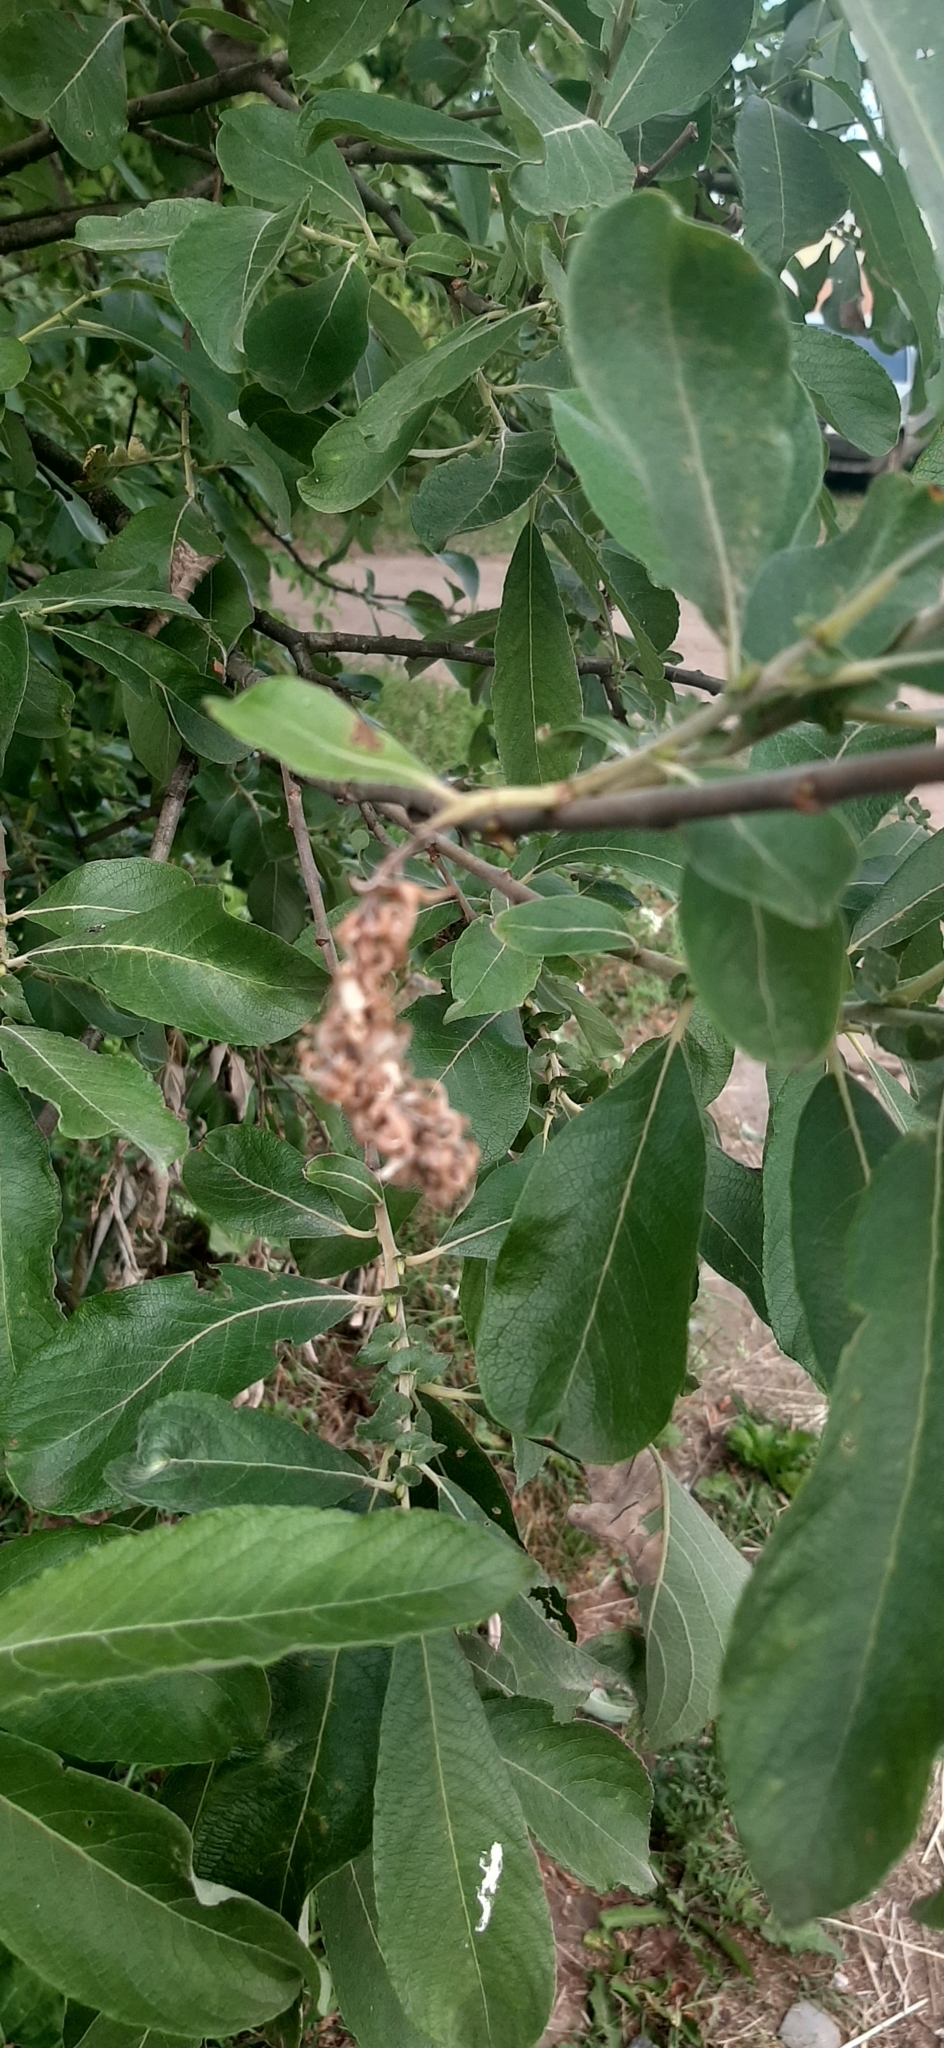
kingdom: Plantae
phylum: Tracheophyta
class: Magnoliopsida
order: Malpighiales
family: Salicaceae
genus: Salix
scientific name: Salix cinerea
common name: Common sallow
